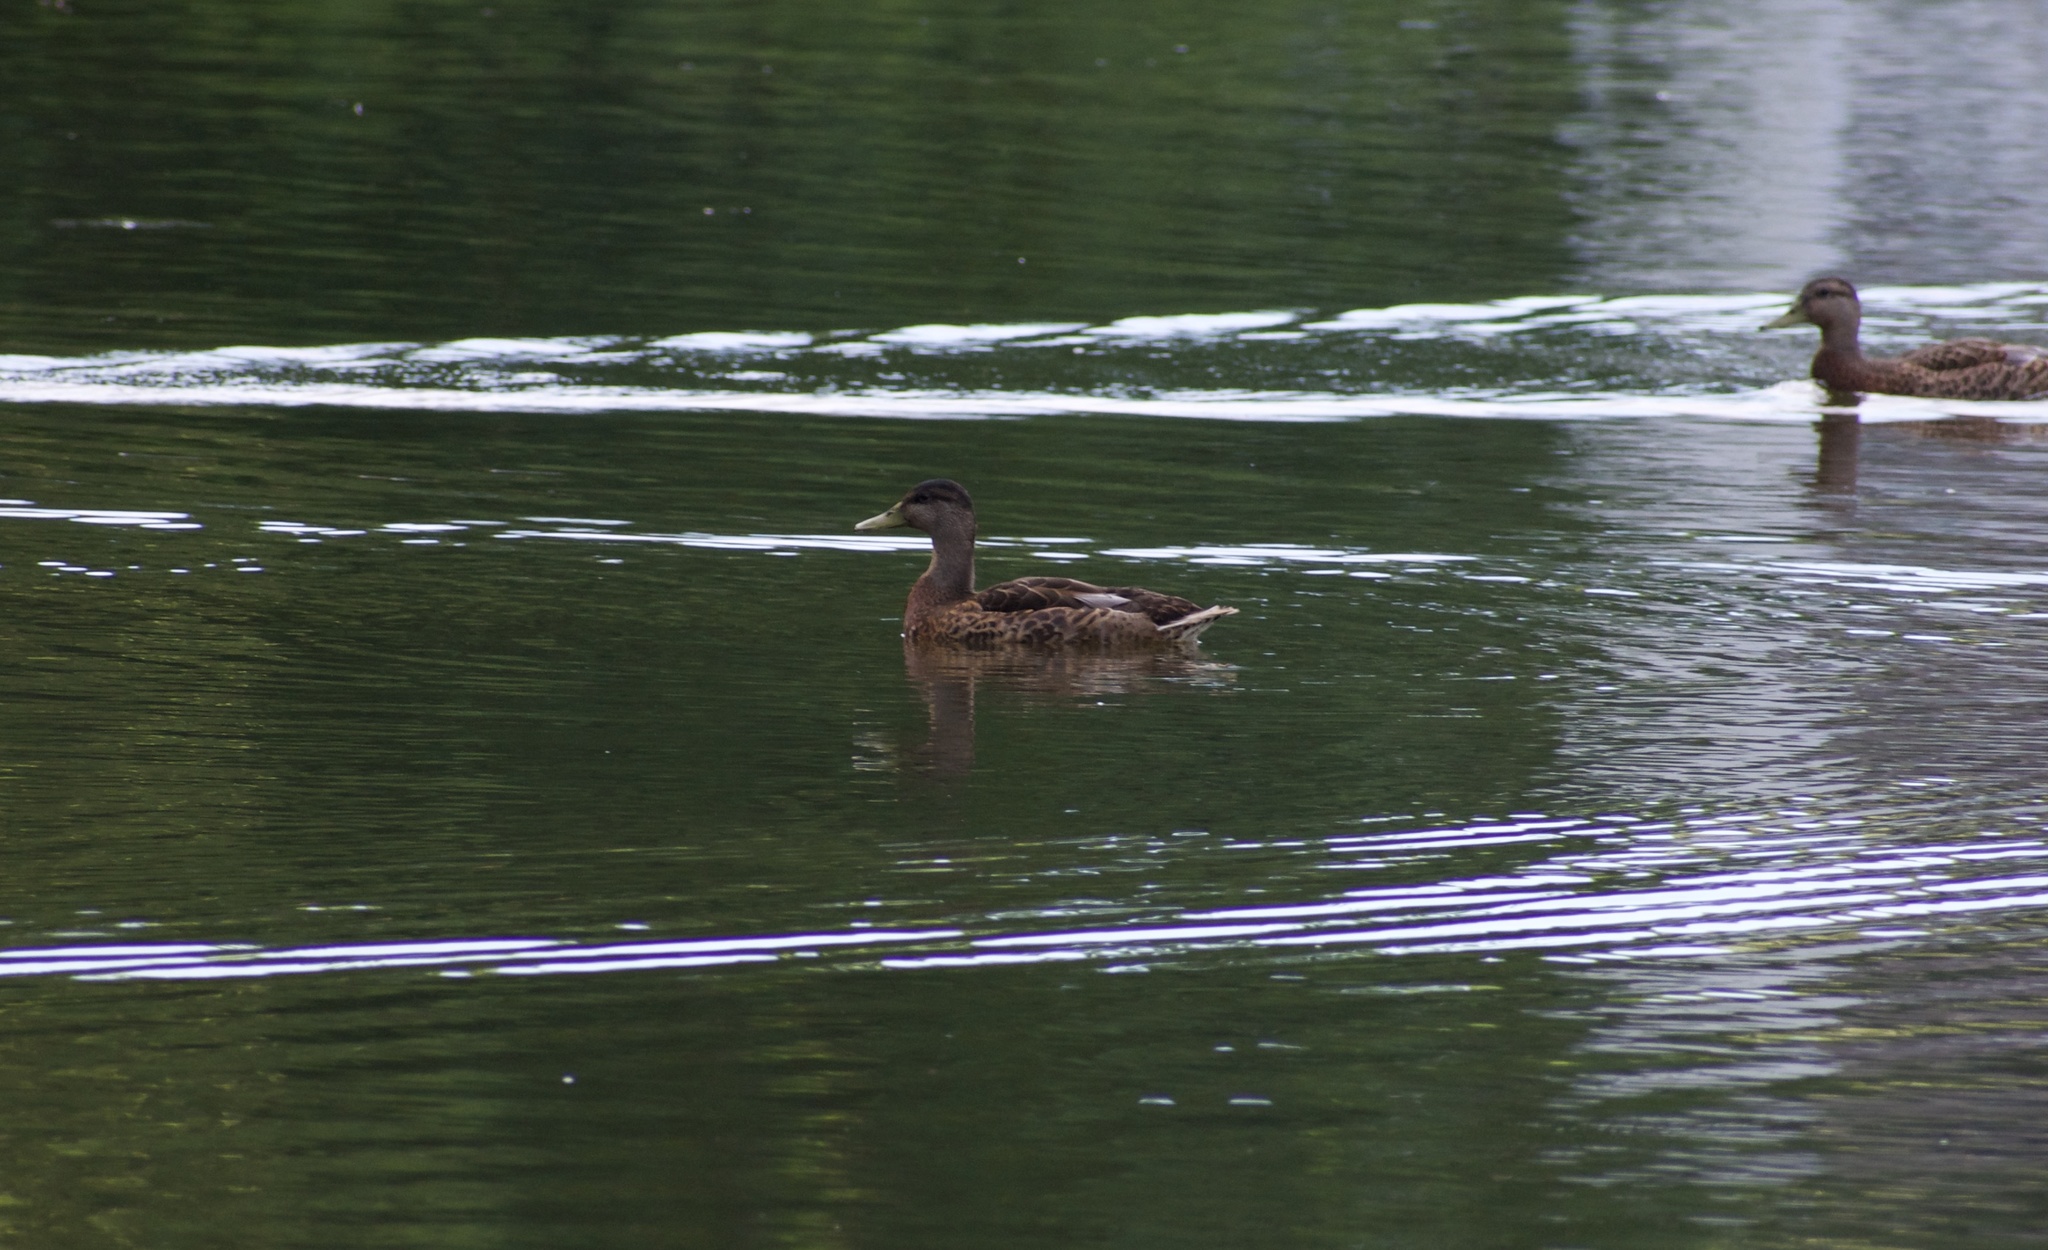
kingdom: Animalia
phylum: Chordata
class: Aves
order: Anseriformes
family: Anatidae
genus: Anas
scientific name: Anas platyrhynchos
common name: Mallard
